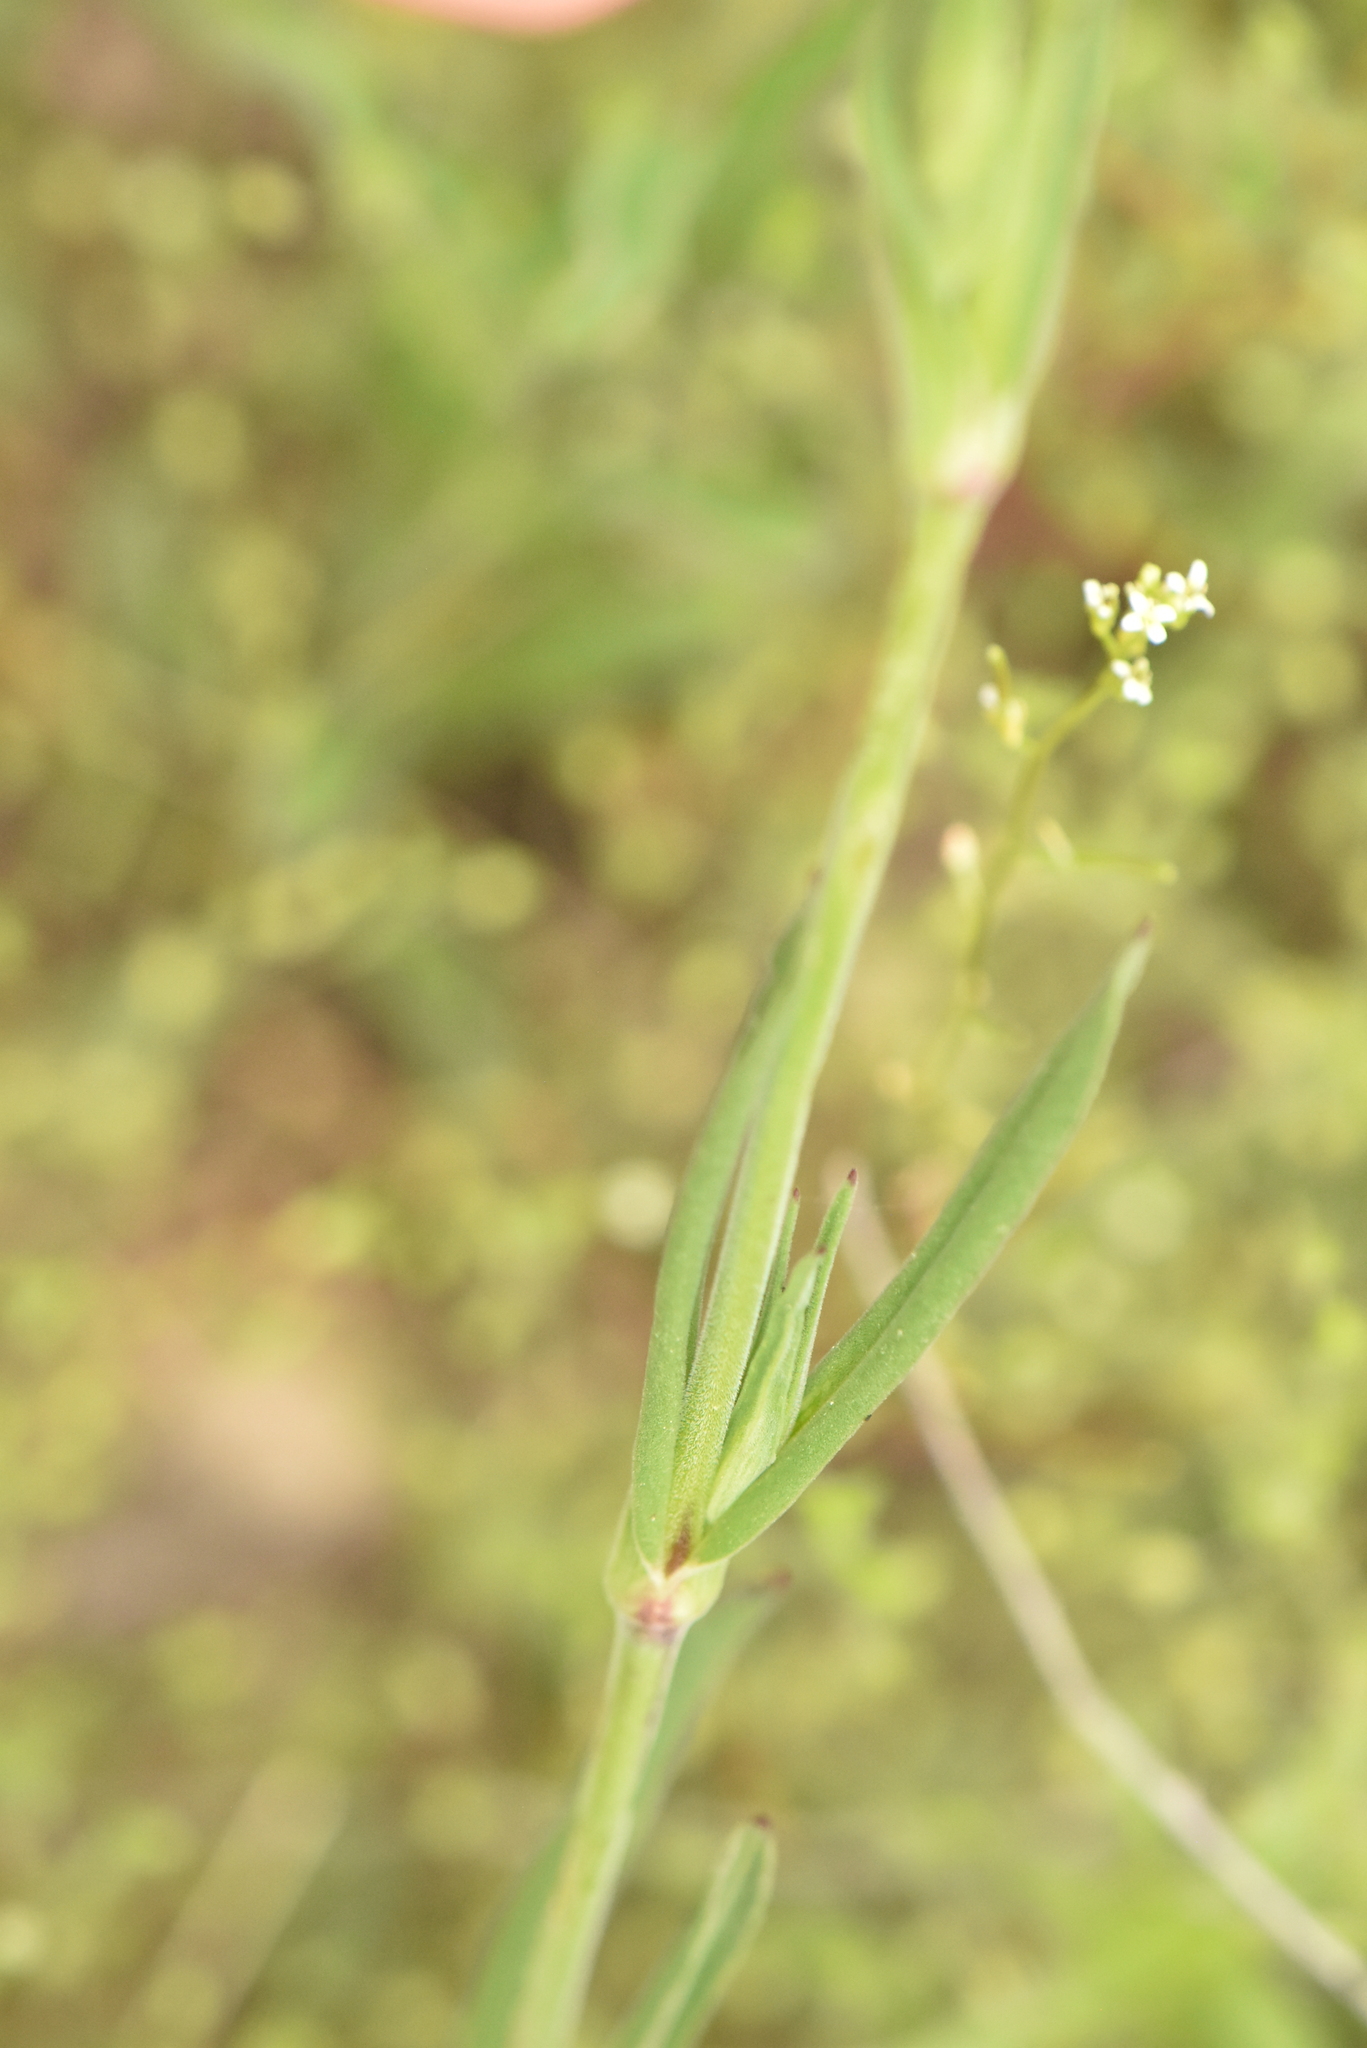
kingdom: Plantae
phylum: Tracheophyta
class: Magnoliopsida
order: Caryophyllales
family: Caryophyllaceae
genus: Silene
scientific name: Silene conica
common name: Sand catchfly
